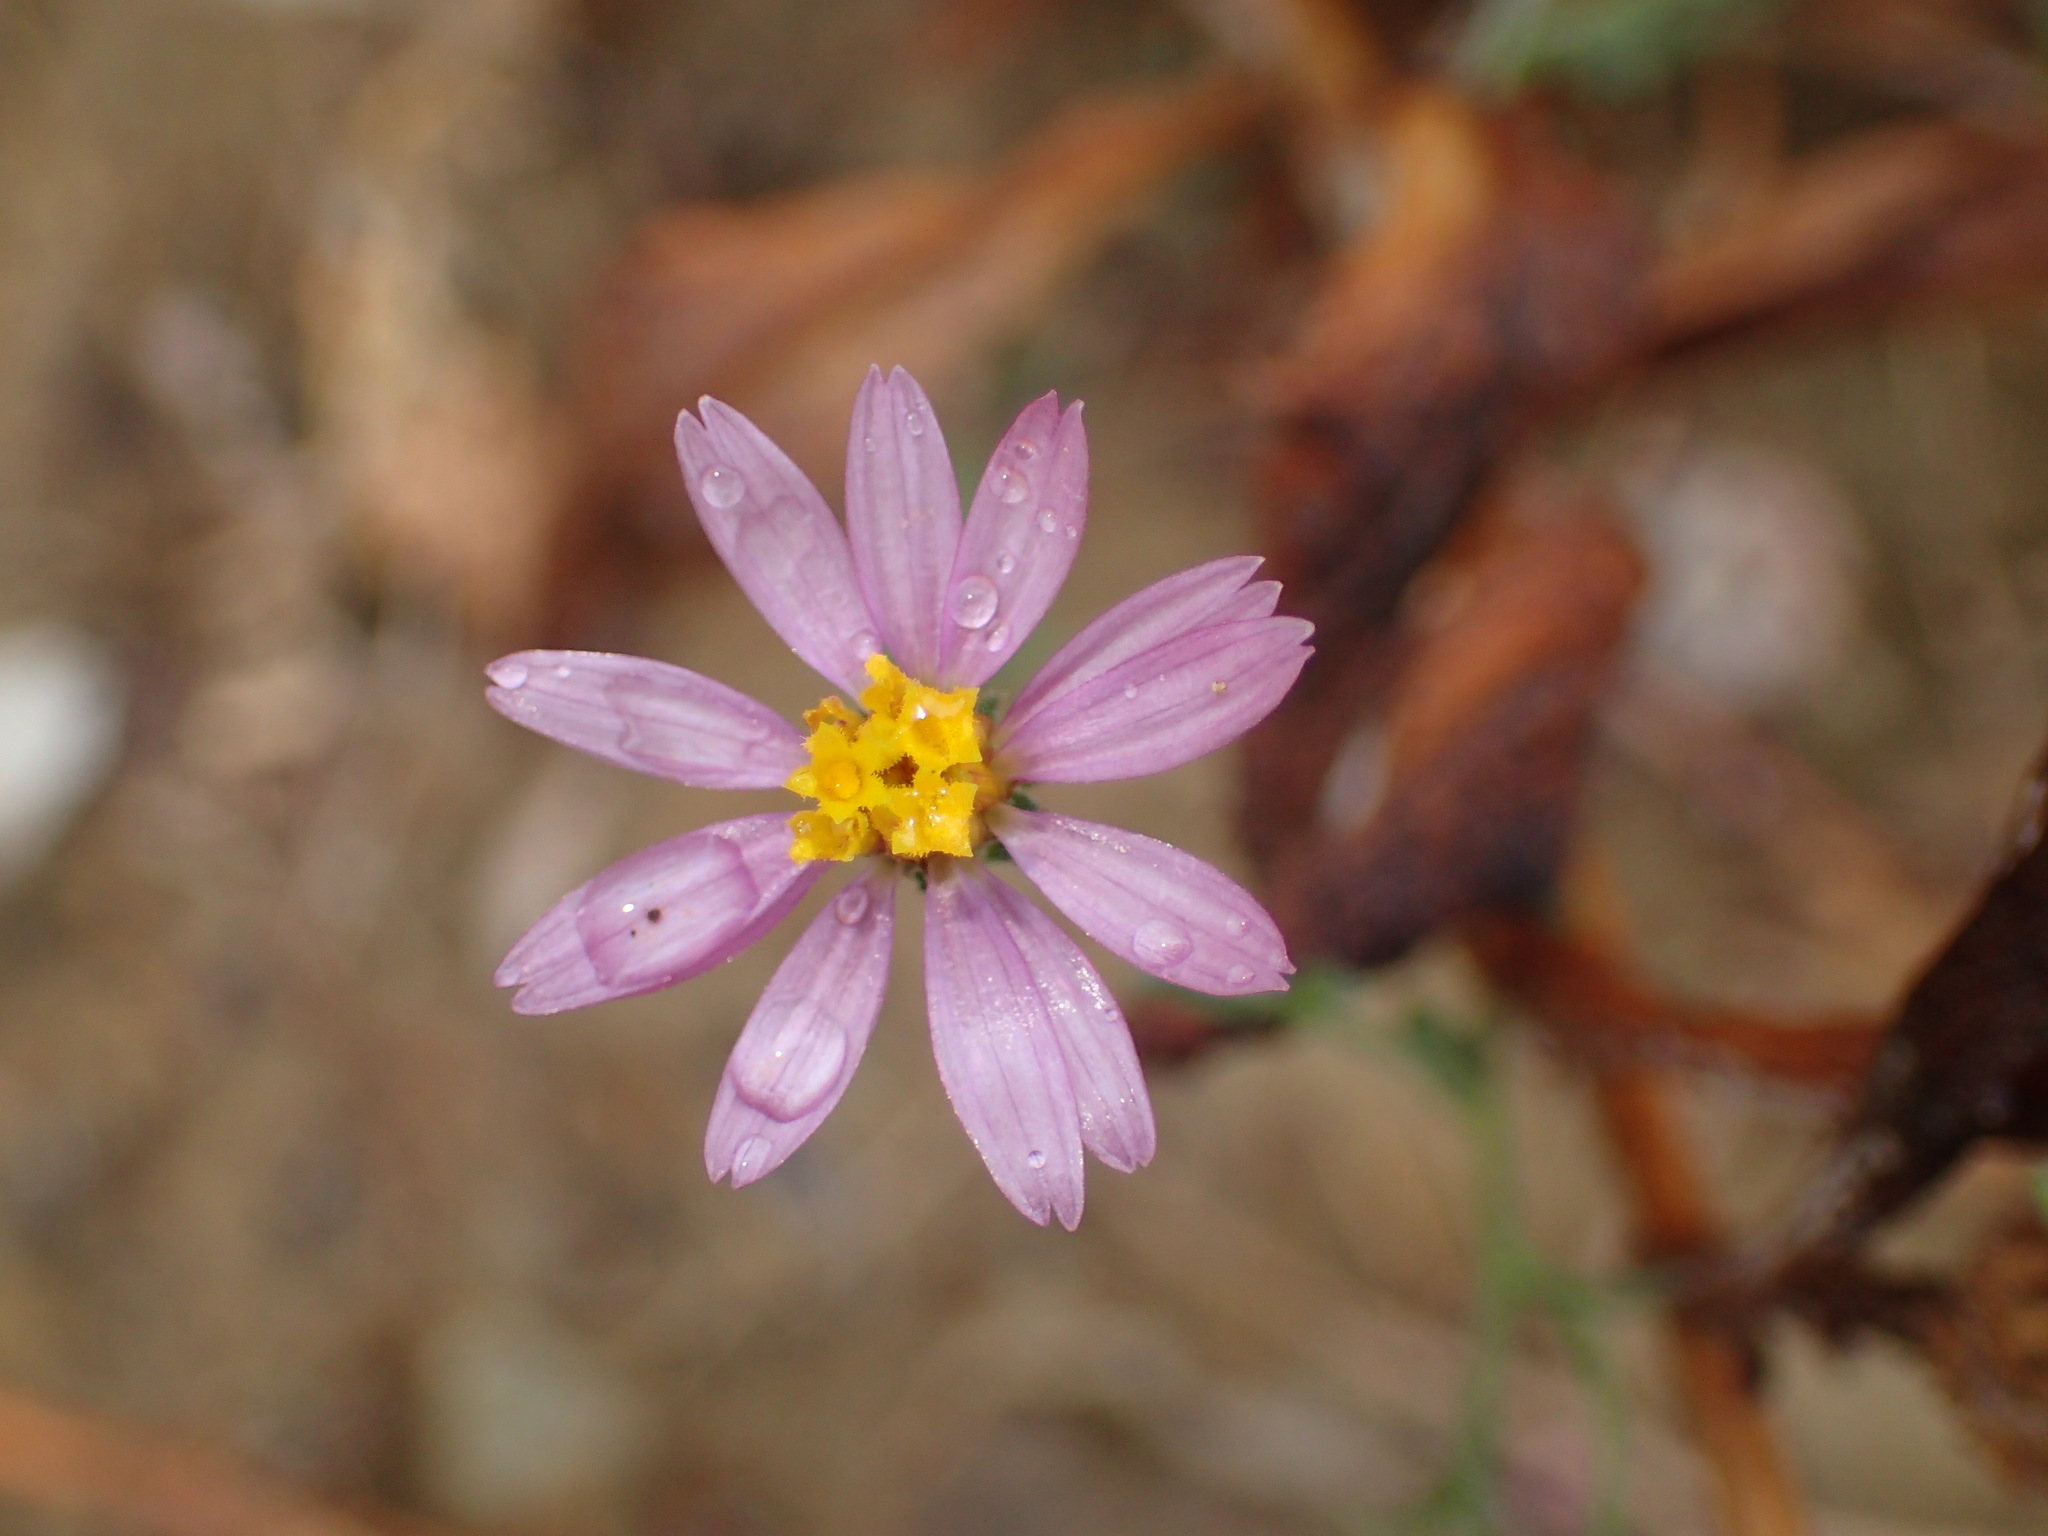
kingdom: Plantae
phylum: Tracheophyta
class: Magnoliopsida
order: Asterales
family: Asteraceae
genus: Corethrogyne
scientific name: Corethrogyne filaginifolia
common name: Sand-aster
